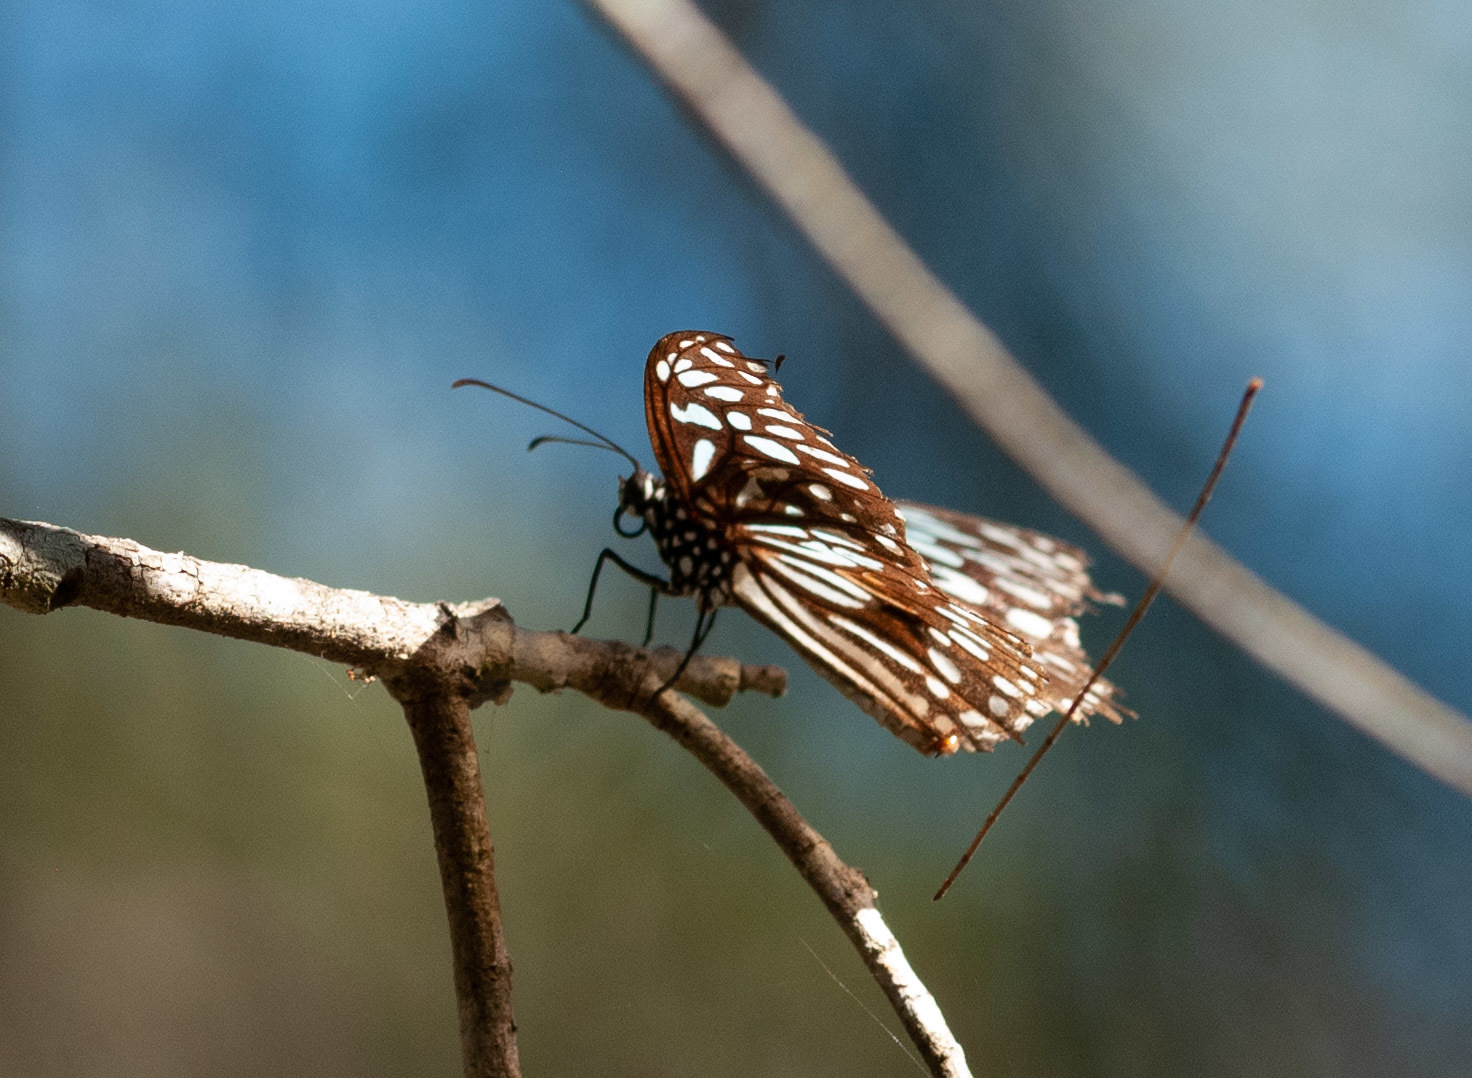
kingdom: Animalia
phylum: Arthropoda
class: Insecta
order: Lepidoptera
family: Nymphalidae
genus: Tirumala
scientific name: Tirumala hamata
